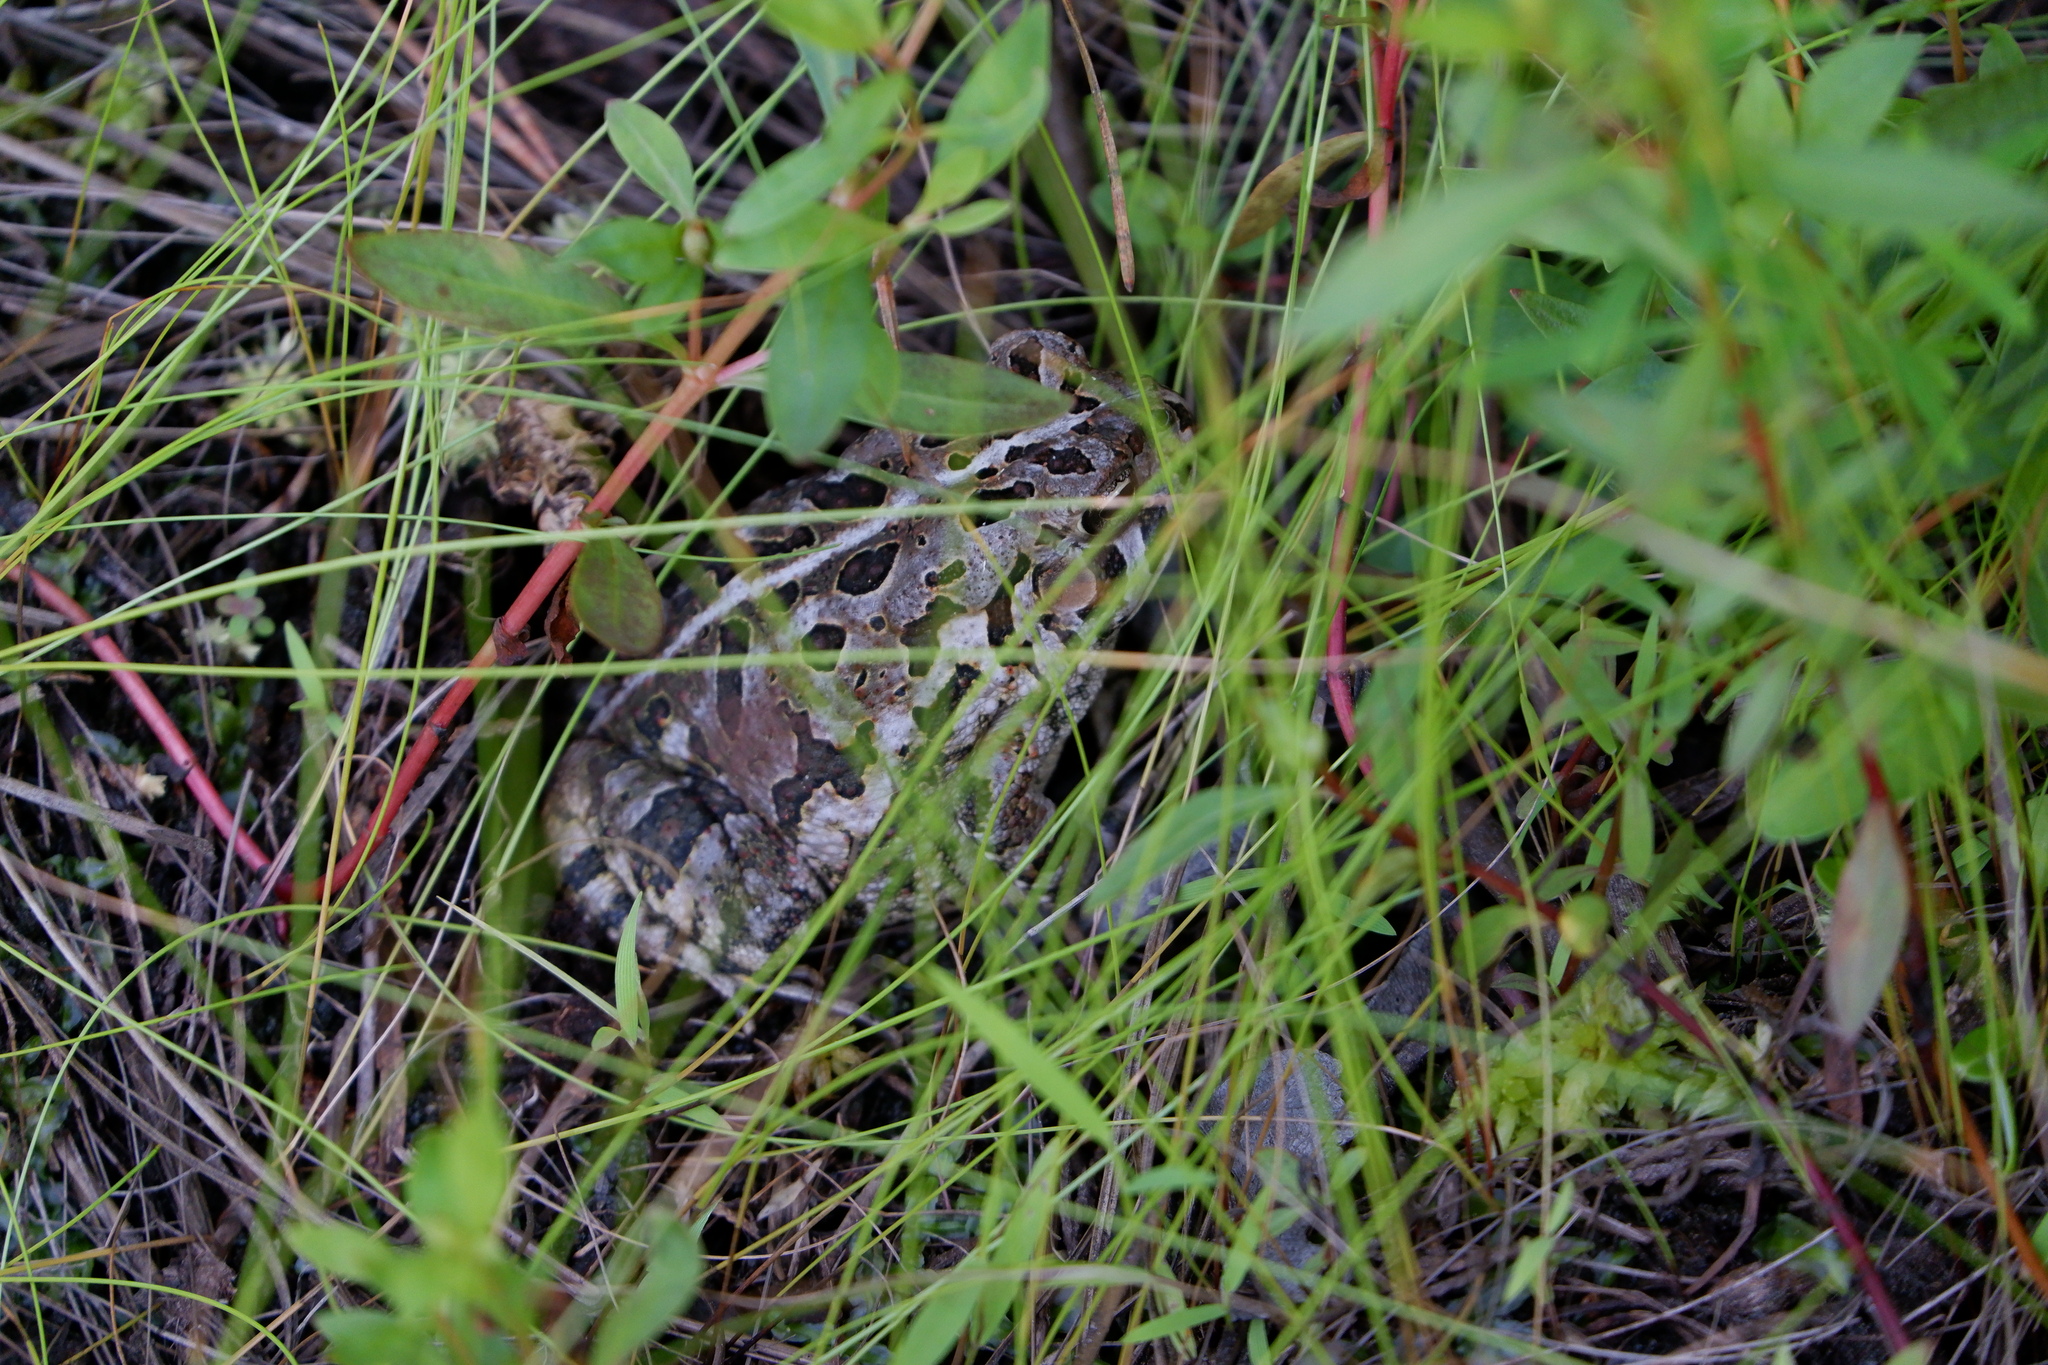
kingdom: Animalia
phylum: Chordata
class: Amphibia
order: Anura
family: Bufonidae
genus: Anaxyrus
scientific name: Anaxyrus fowleri
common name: Fowler's toad
